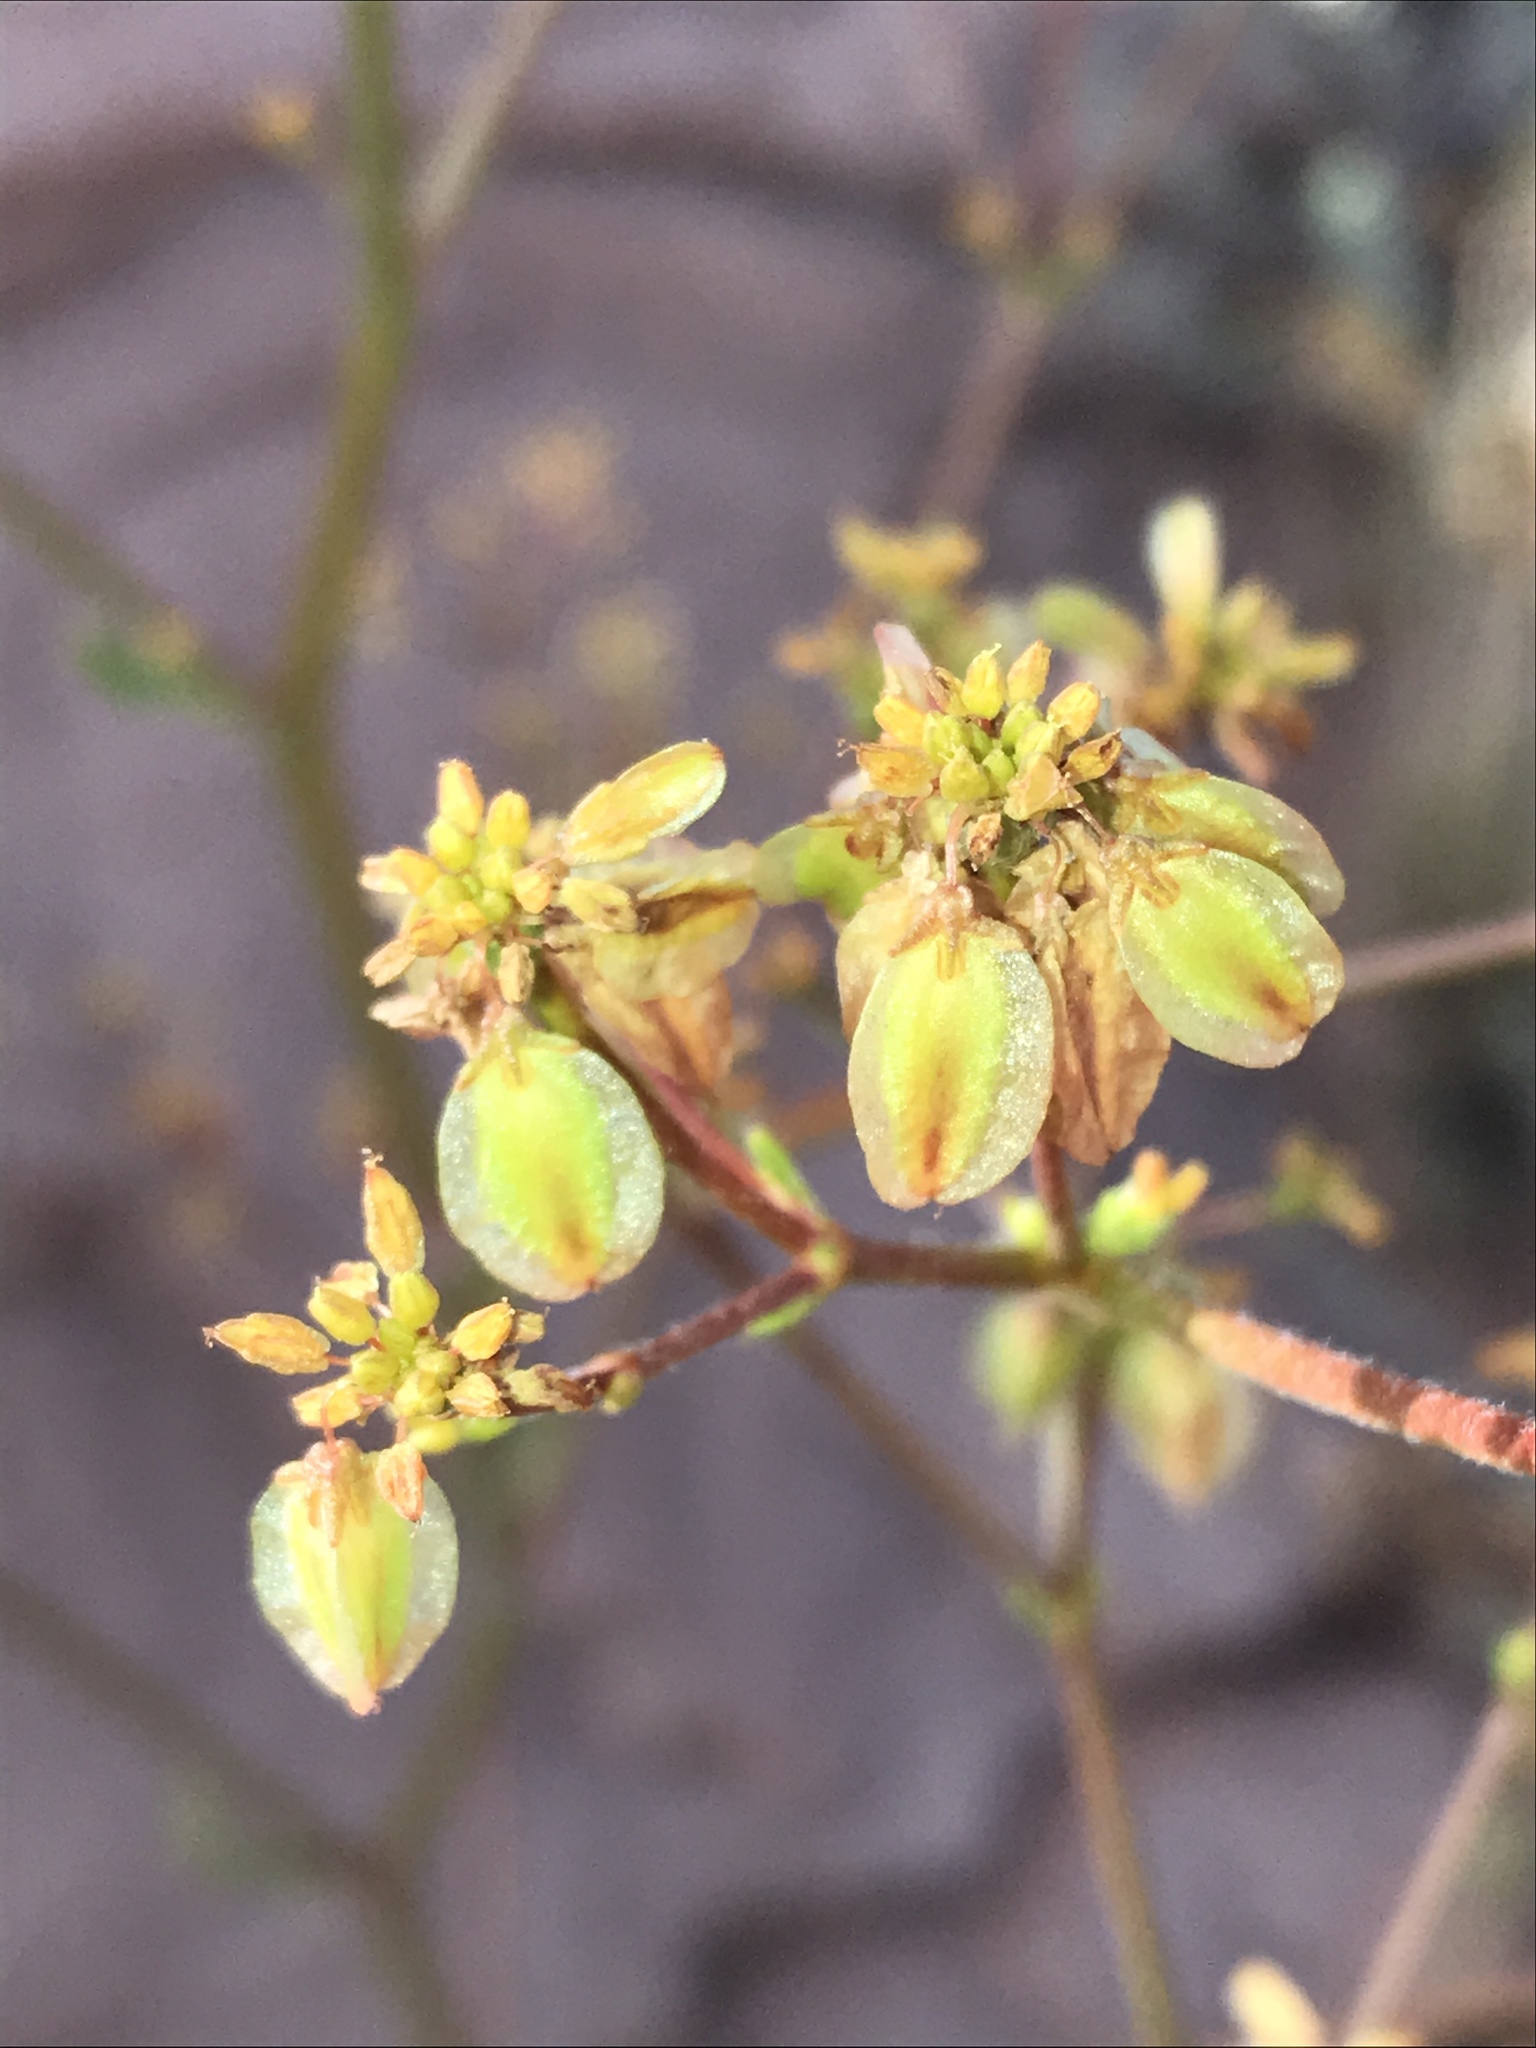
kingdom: Plantae
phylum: Tracheophyta
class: Magnoliopsida
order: Caryophyllales
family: Polygonaceae
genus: Eriogonum
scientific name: Eriogonum alatum
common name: Winged eriogonum
